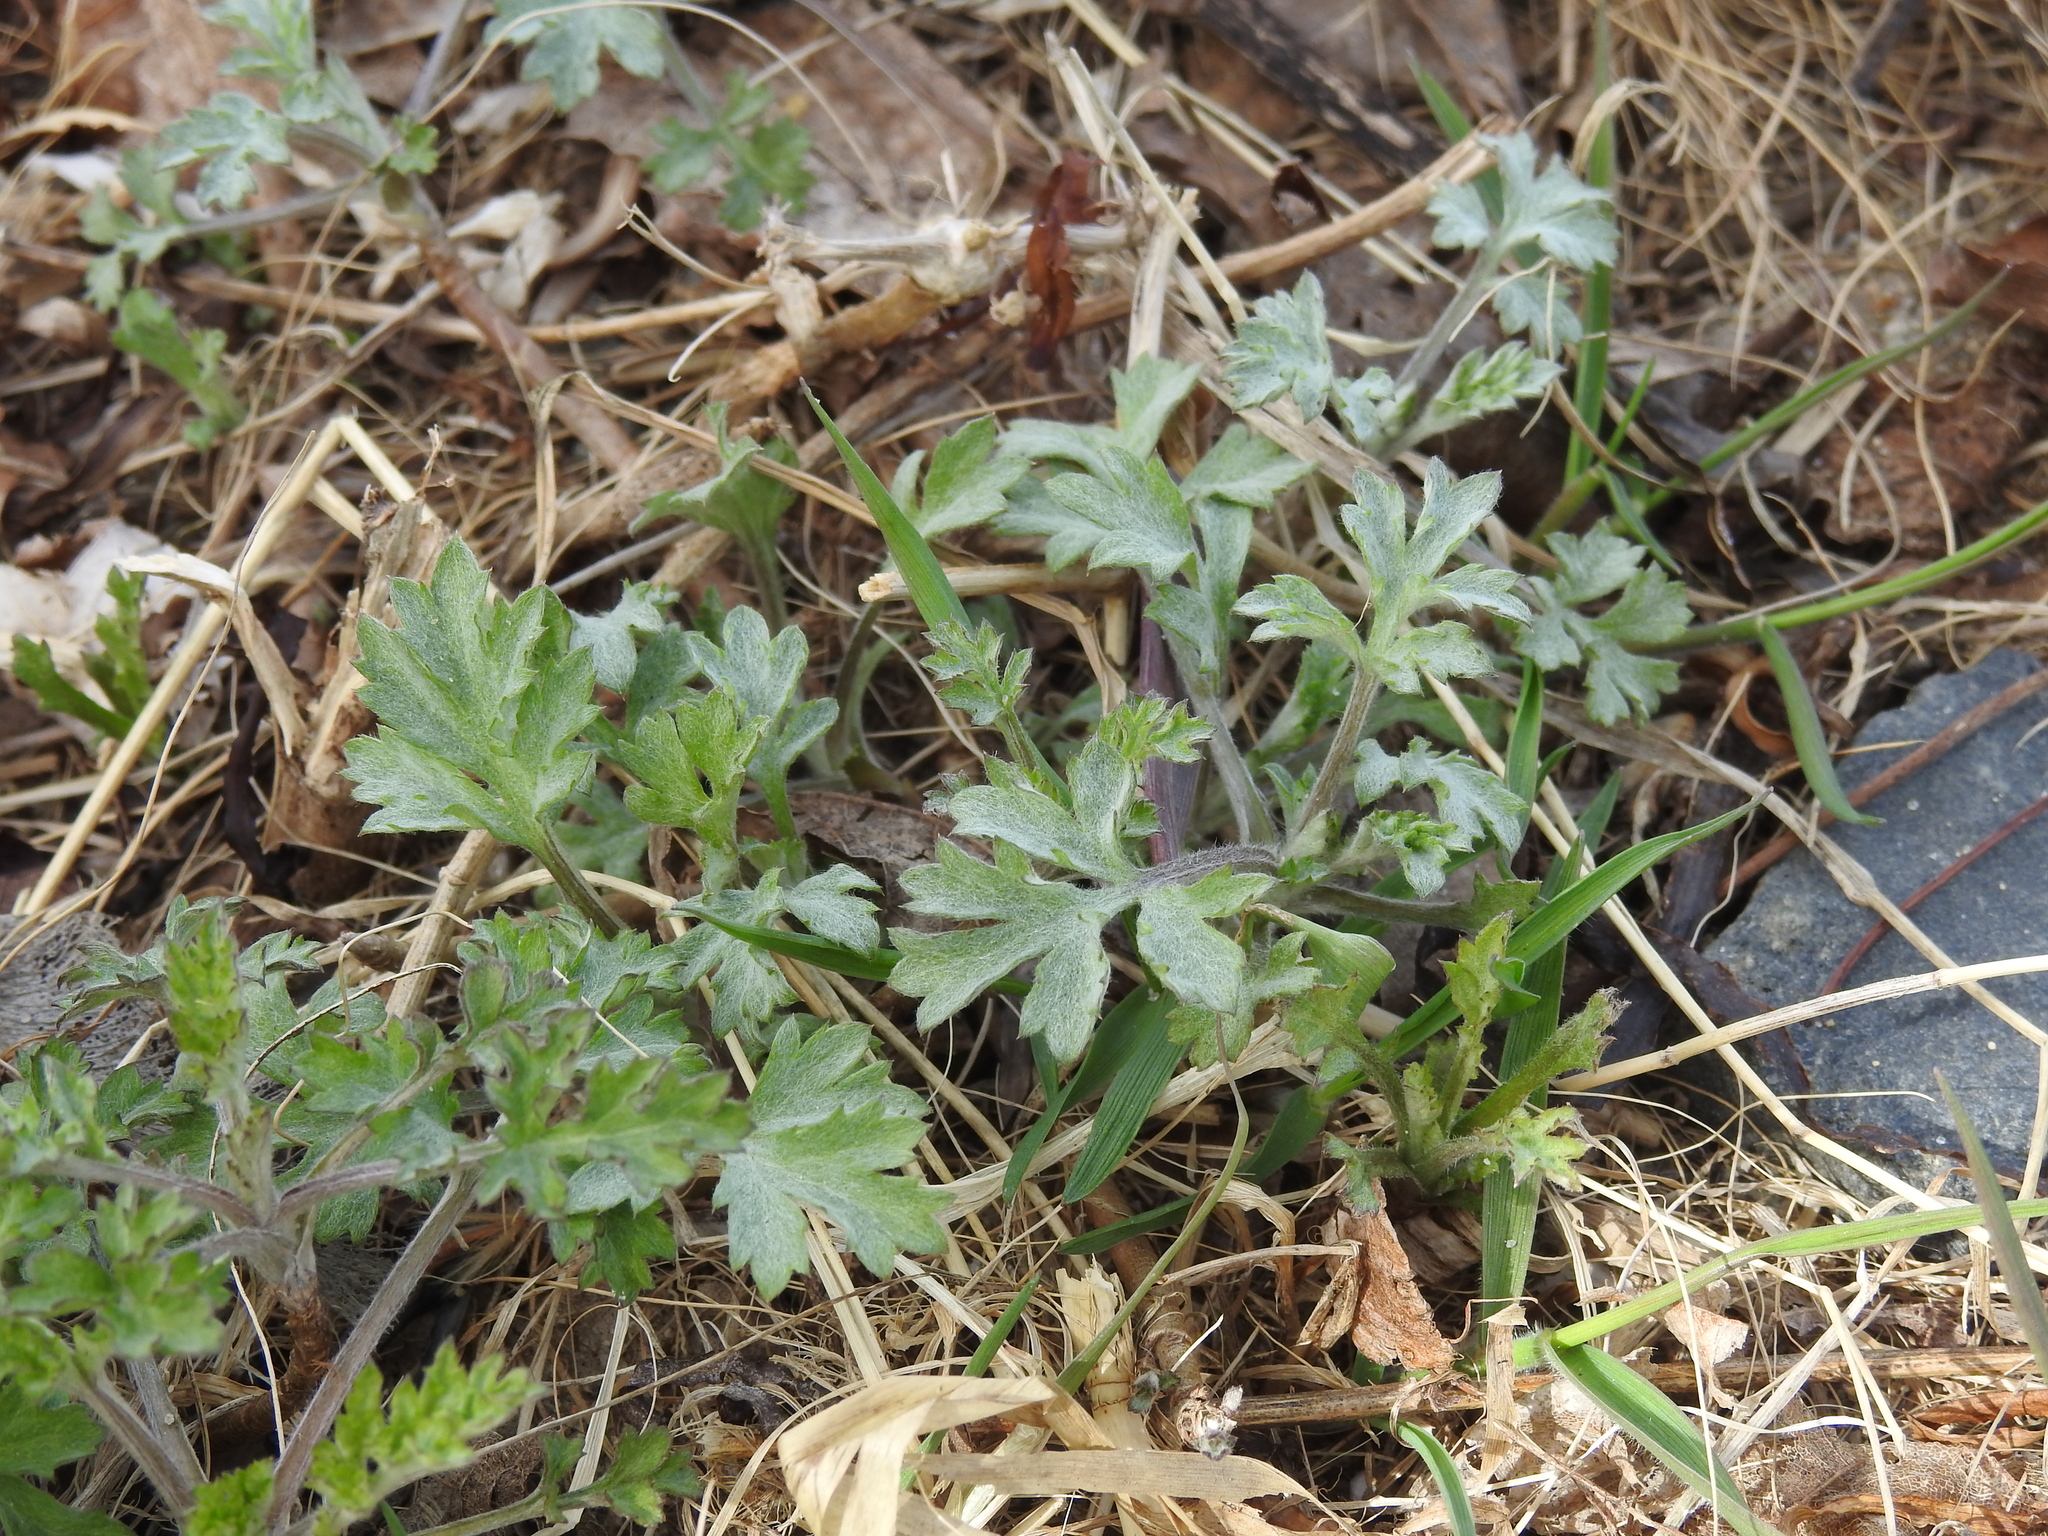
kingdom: Plantae
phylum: Tracheophyta
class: Magnoliopsida
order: Asterales
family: Asteraceae
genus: Artemisia
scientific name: Artemisia vulgaris
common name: Mugwort
